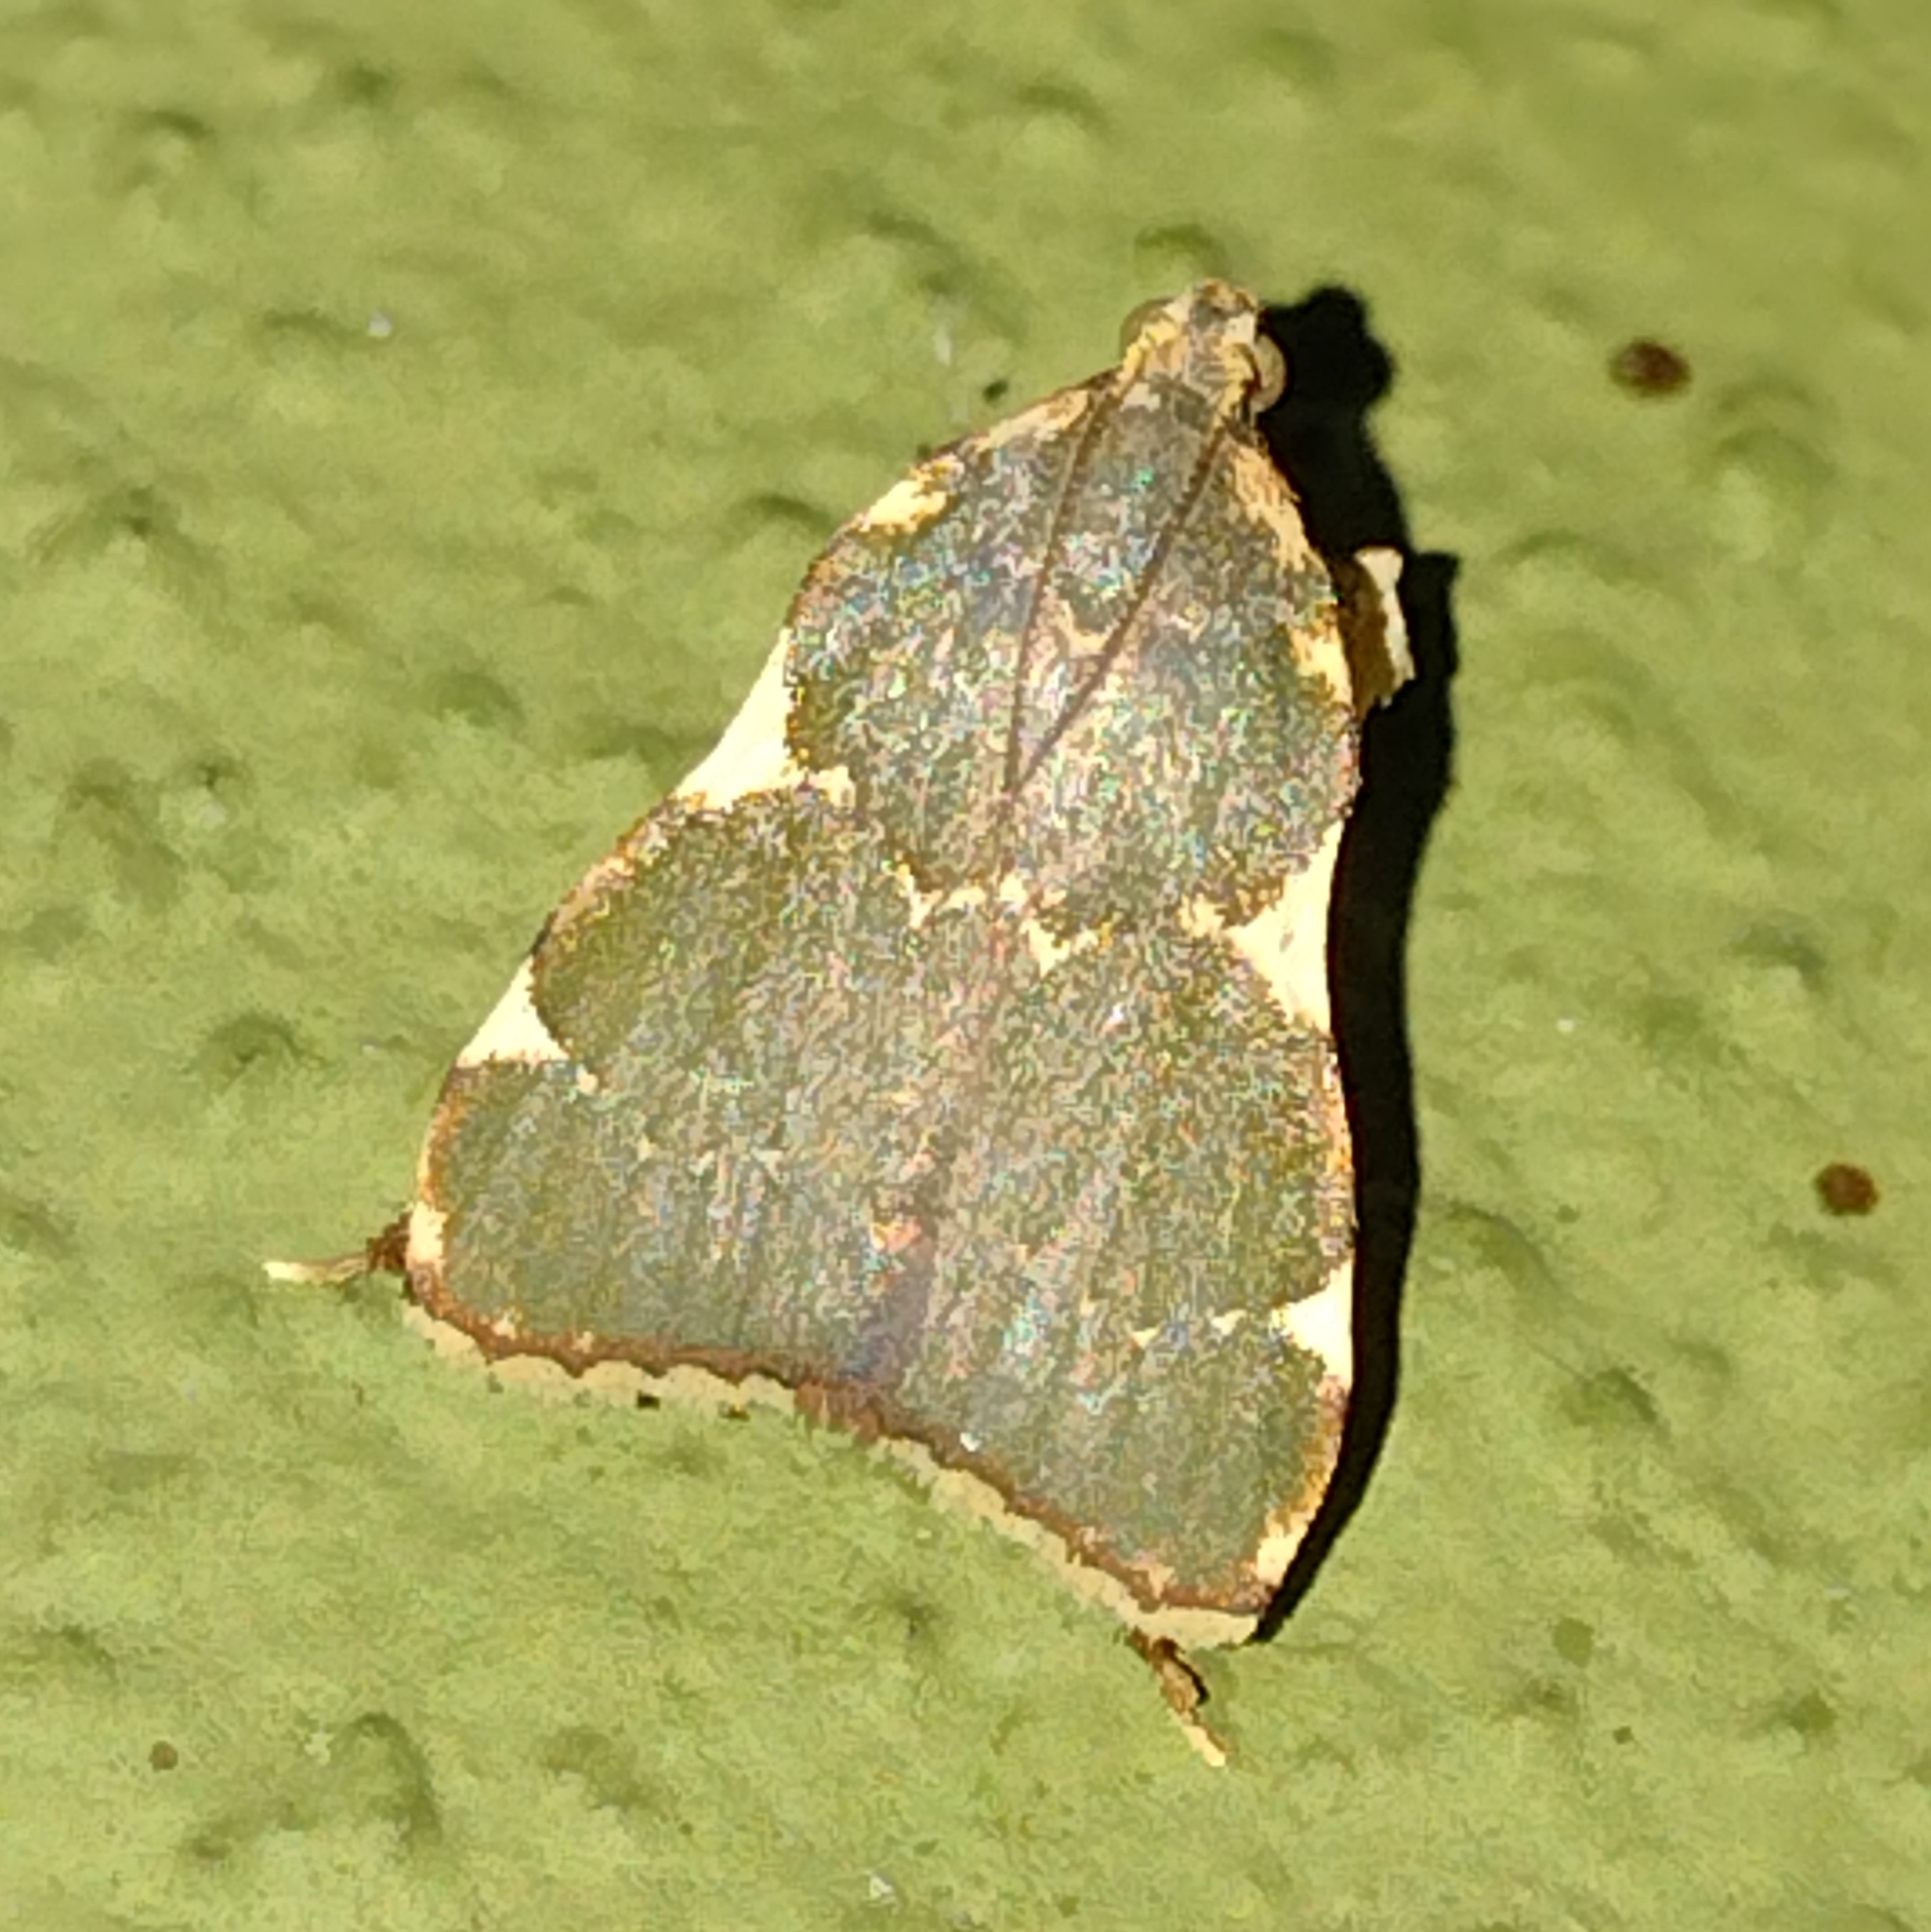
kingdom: Animalia
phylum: Arthropoda
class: Insecta
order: Lepidoptera
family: Pyralidae
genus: Parachma
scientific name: Parachma rufoflavalis
